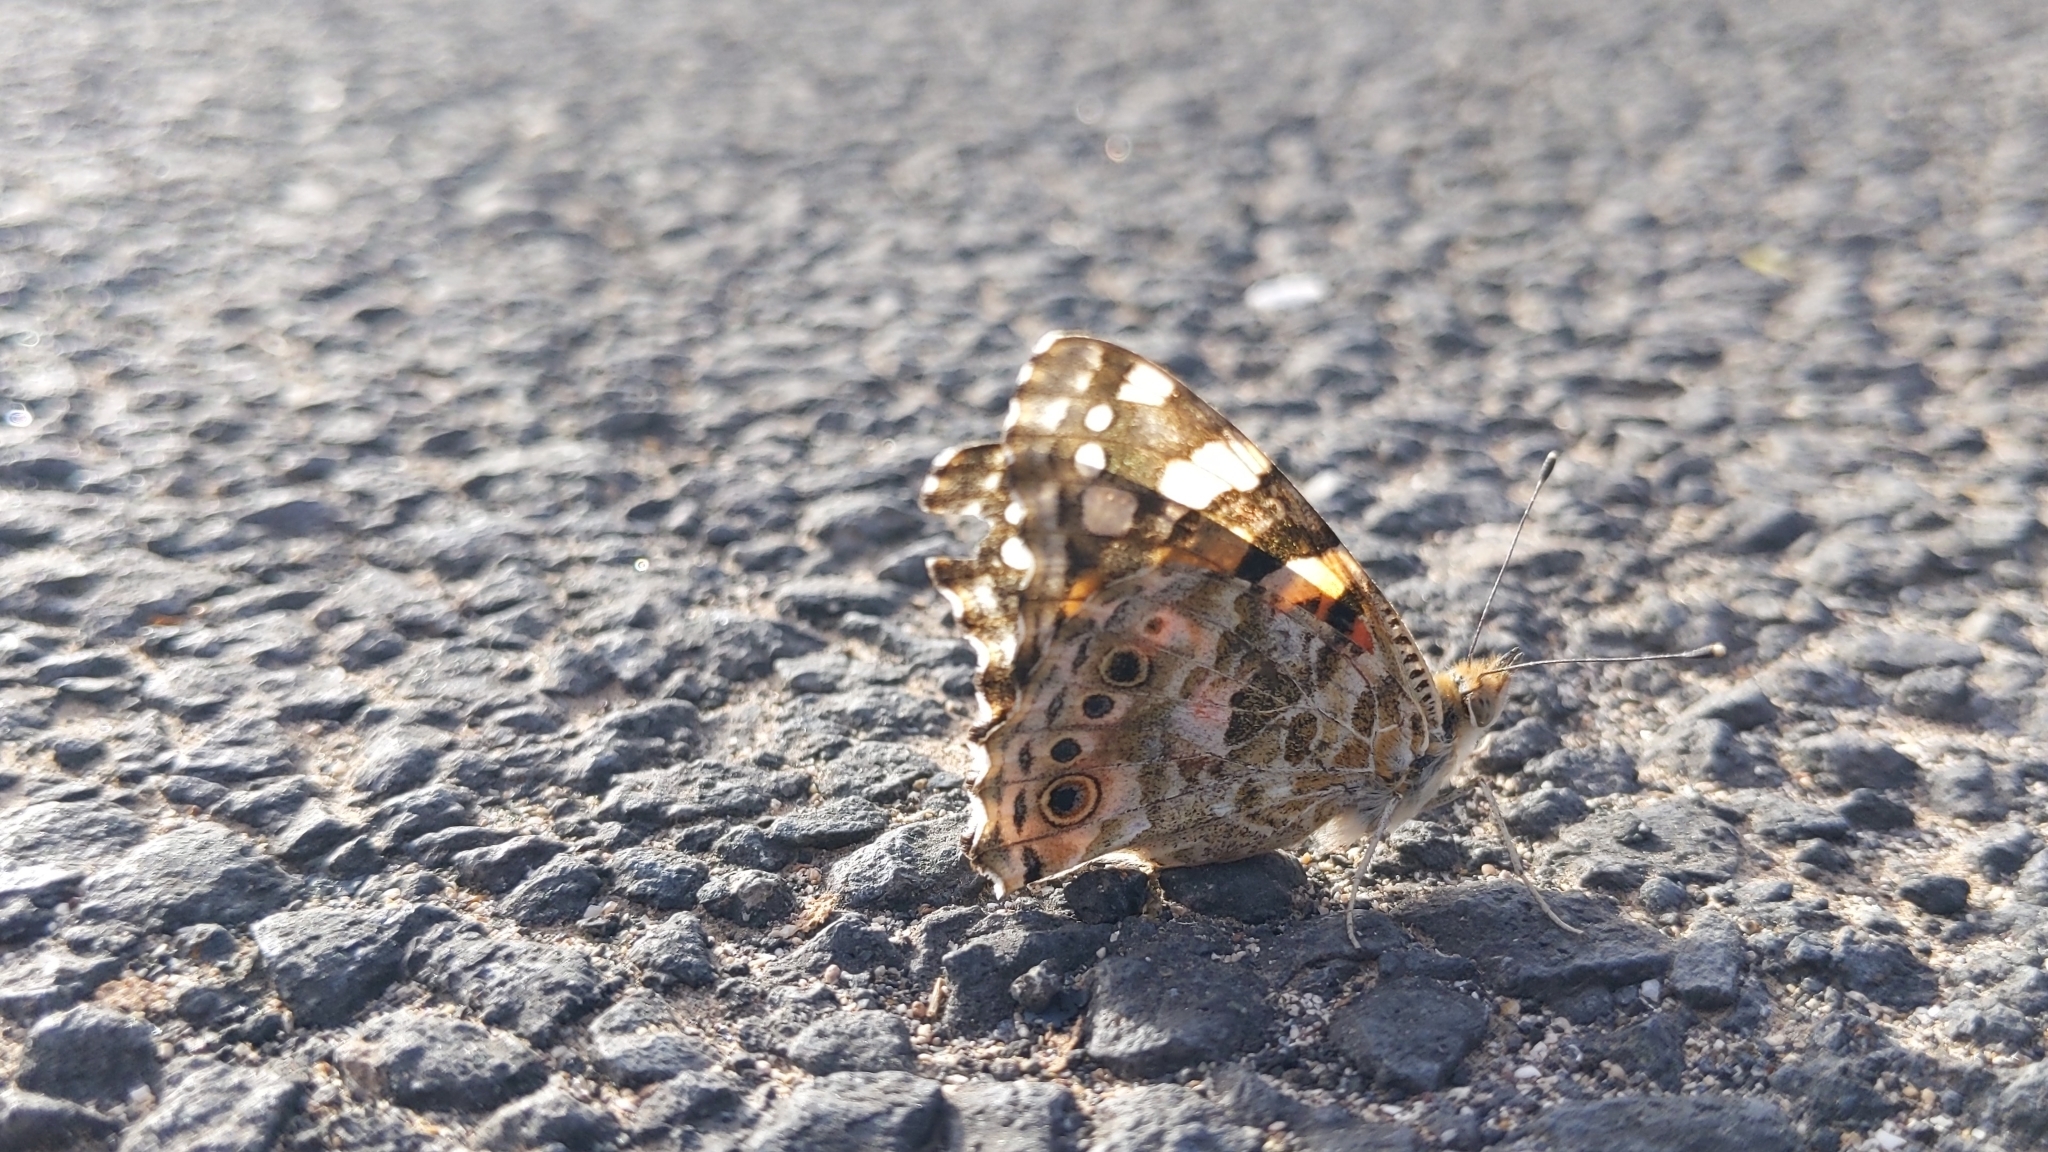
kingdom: Animalia
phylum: Arthropoda
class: Insecta
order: Lepidoptera
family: Nymphalidae
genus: Vanessa
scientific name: Vanessa cardui
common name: Painted lady
